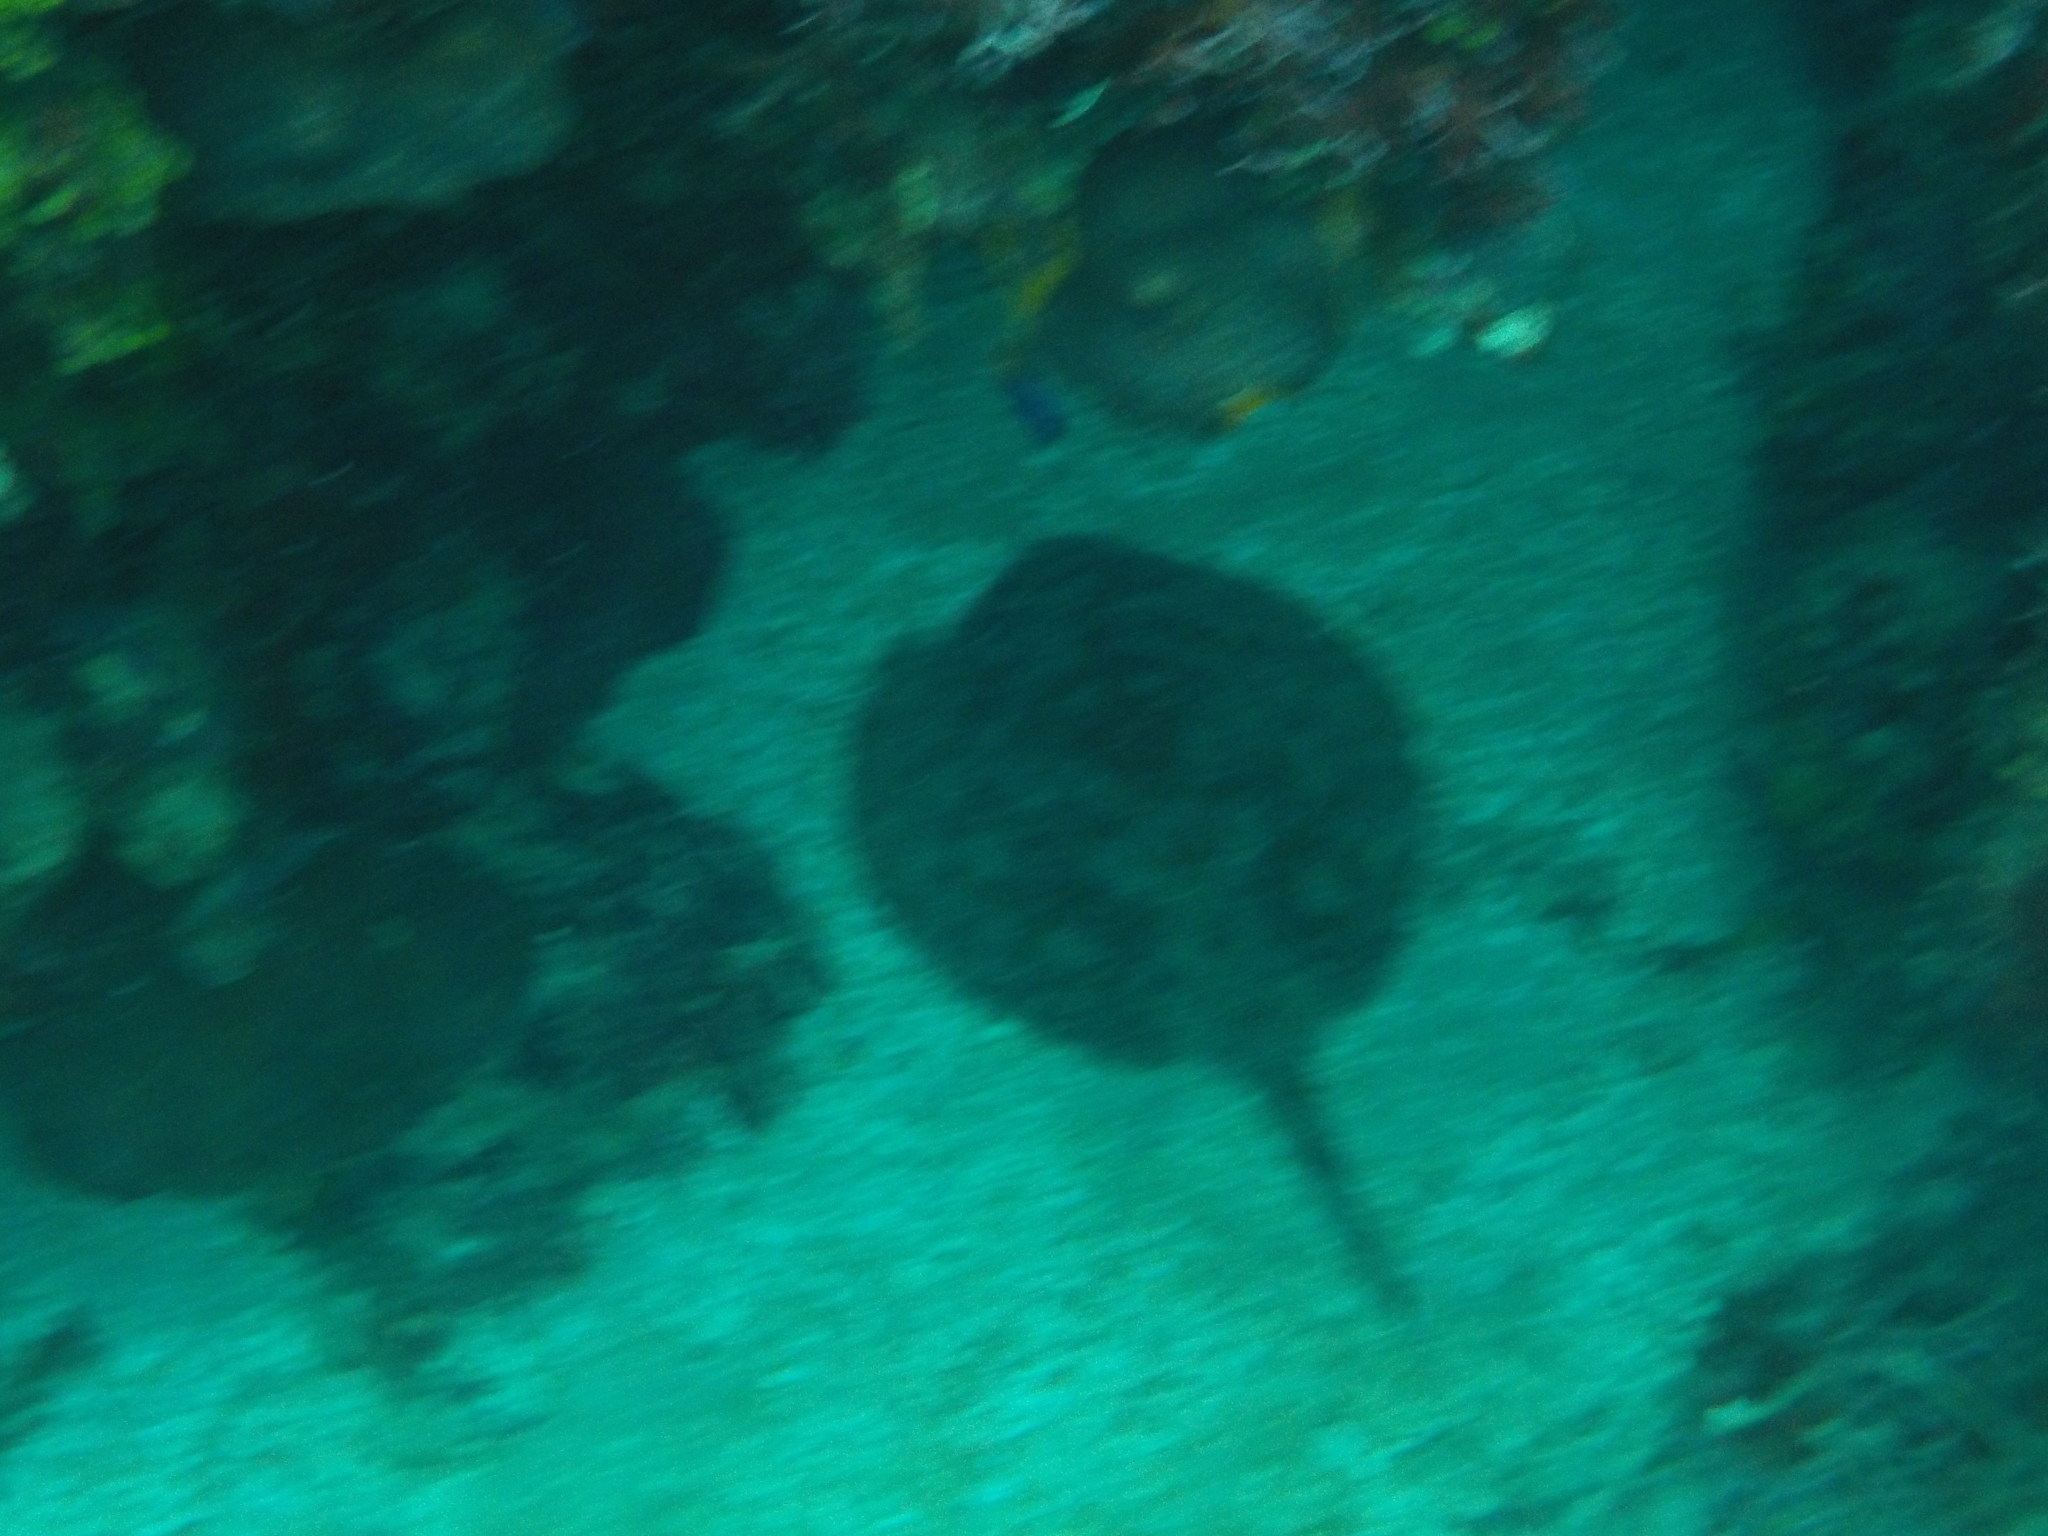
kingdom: Animalia
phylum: Chordata
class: Elasmobranchii
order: Myliobatiformes
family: Urotrygonidae
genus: Urobatis
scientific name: Urobatis jamaicensis
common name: Yellow stingray
